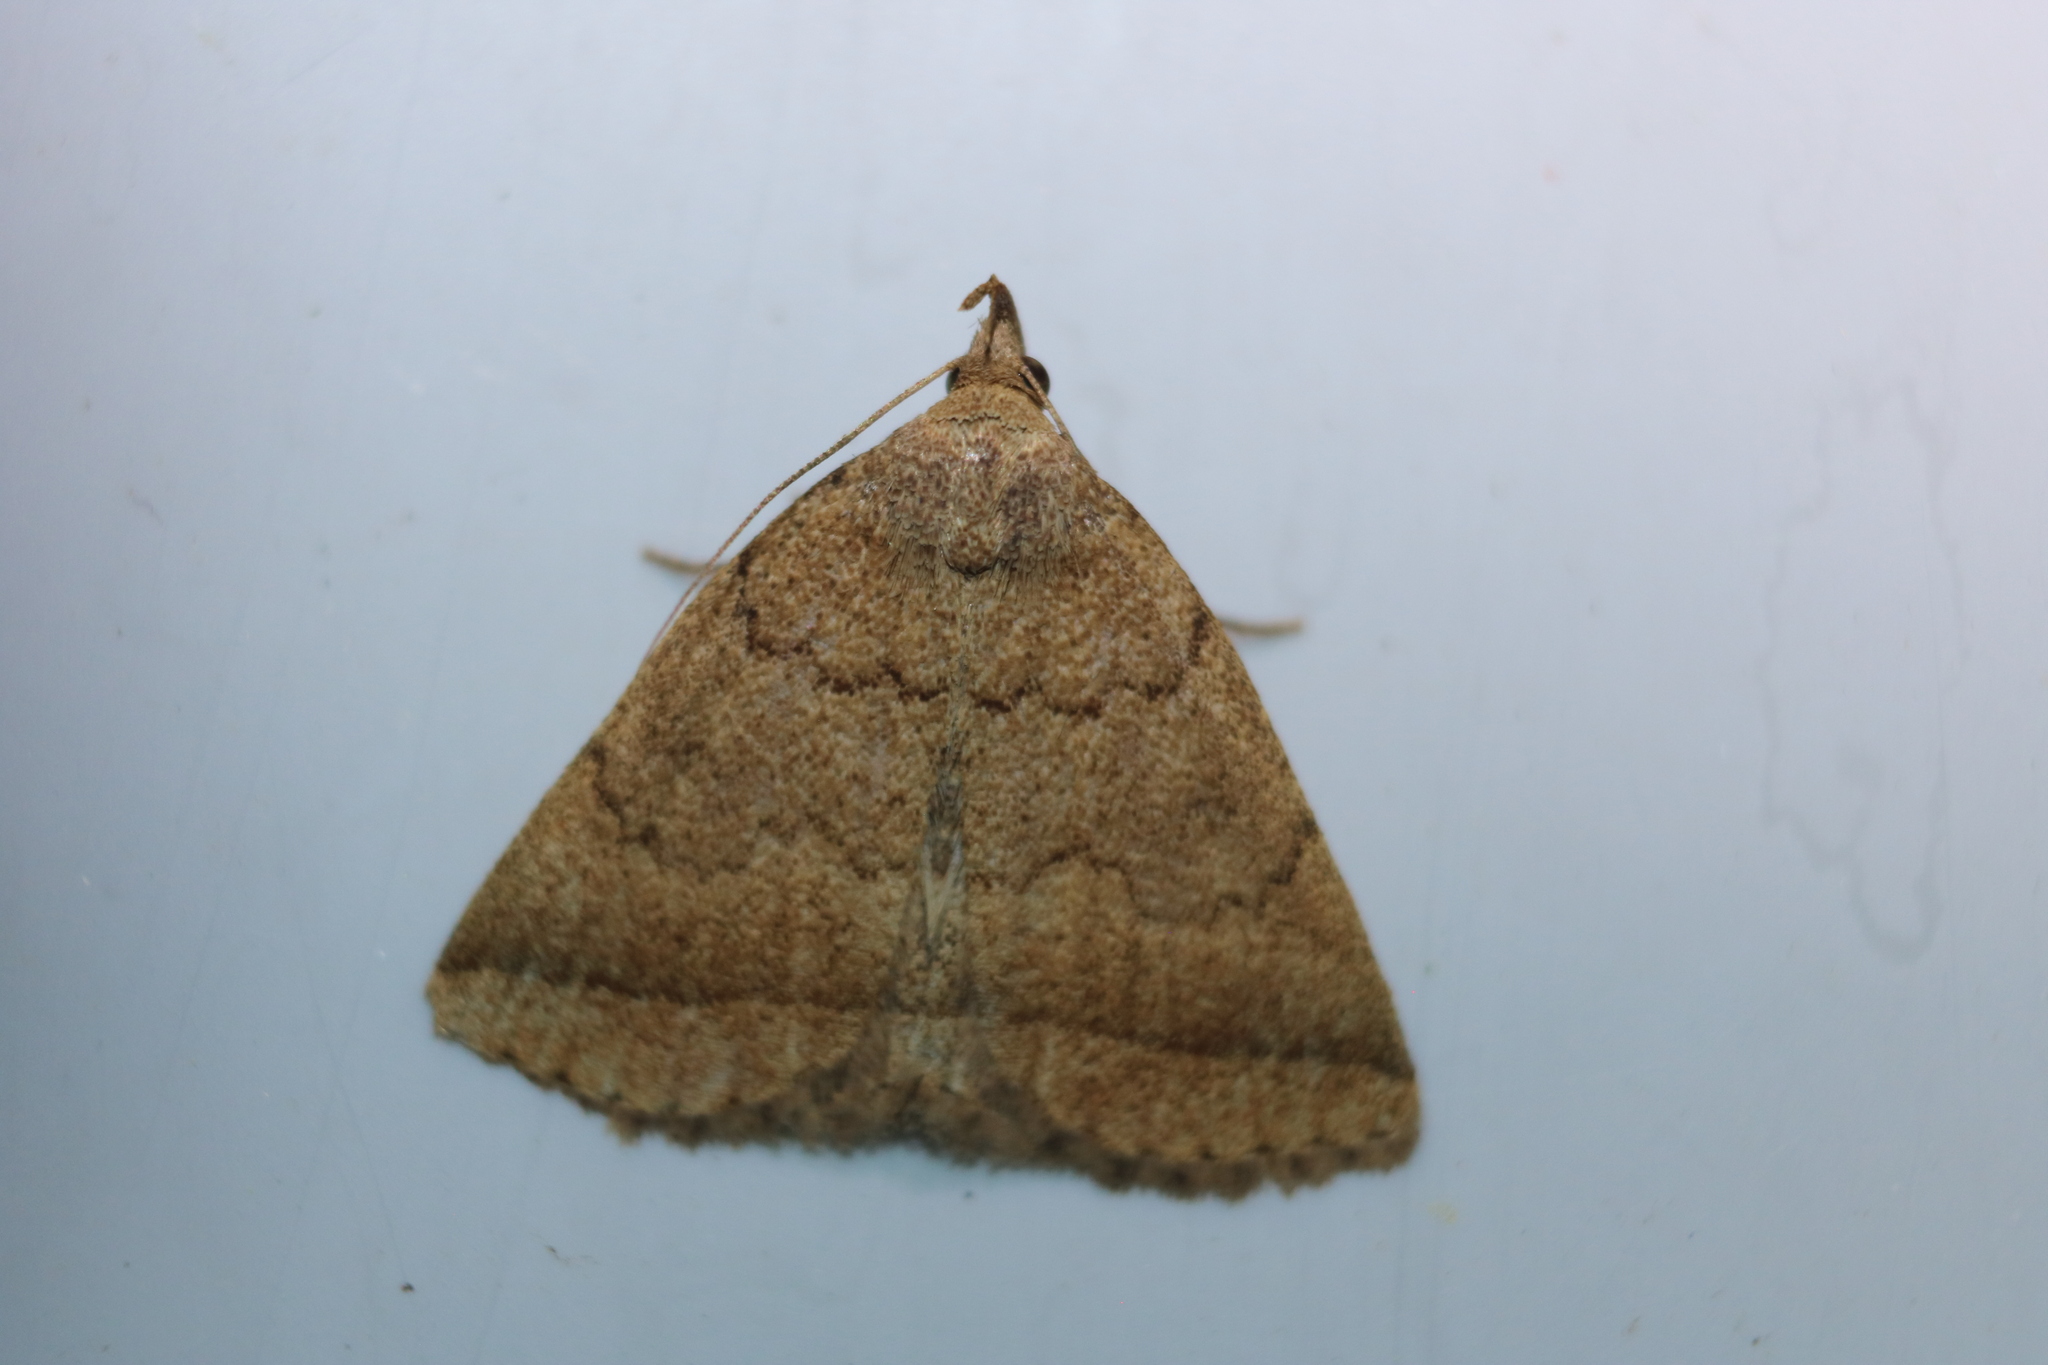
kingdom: Animalia
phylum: Arthropoda
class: Insecta
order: Lepidoptera
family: Erebidae
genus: Zanclognatha
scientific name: Zanclognatha jacchusalis
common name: Yellowish zanclognatha
